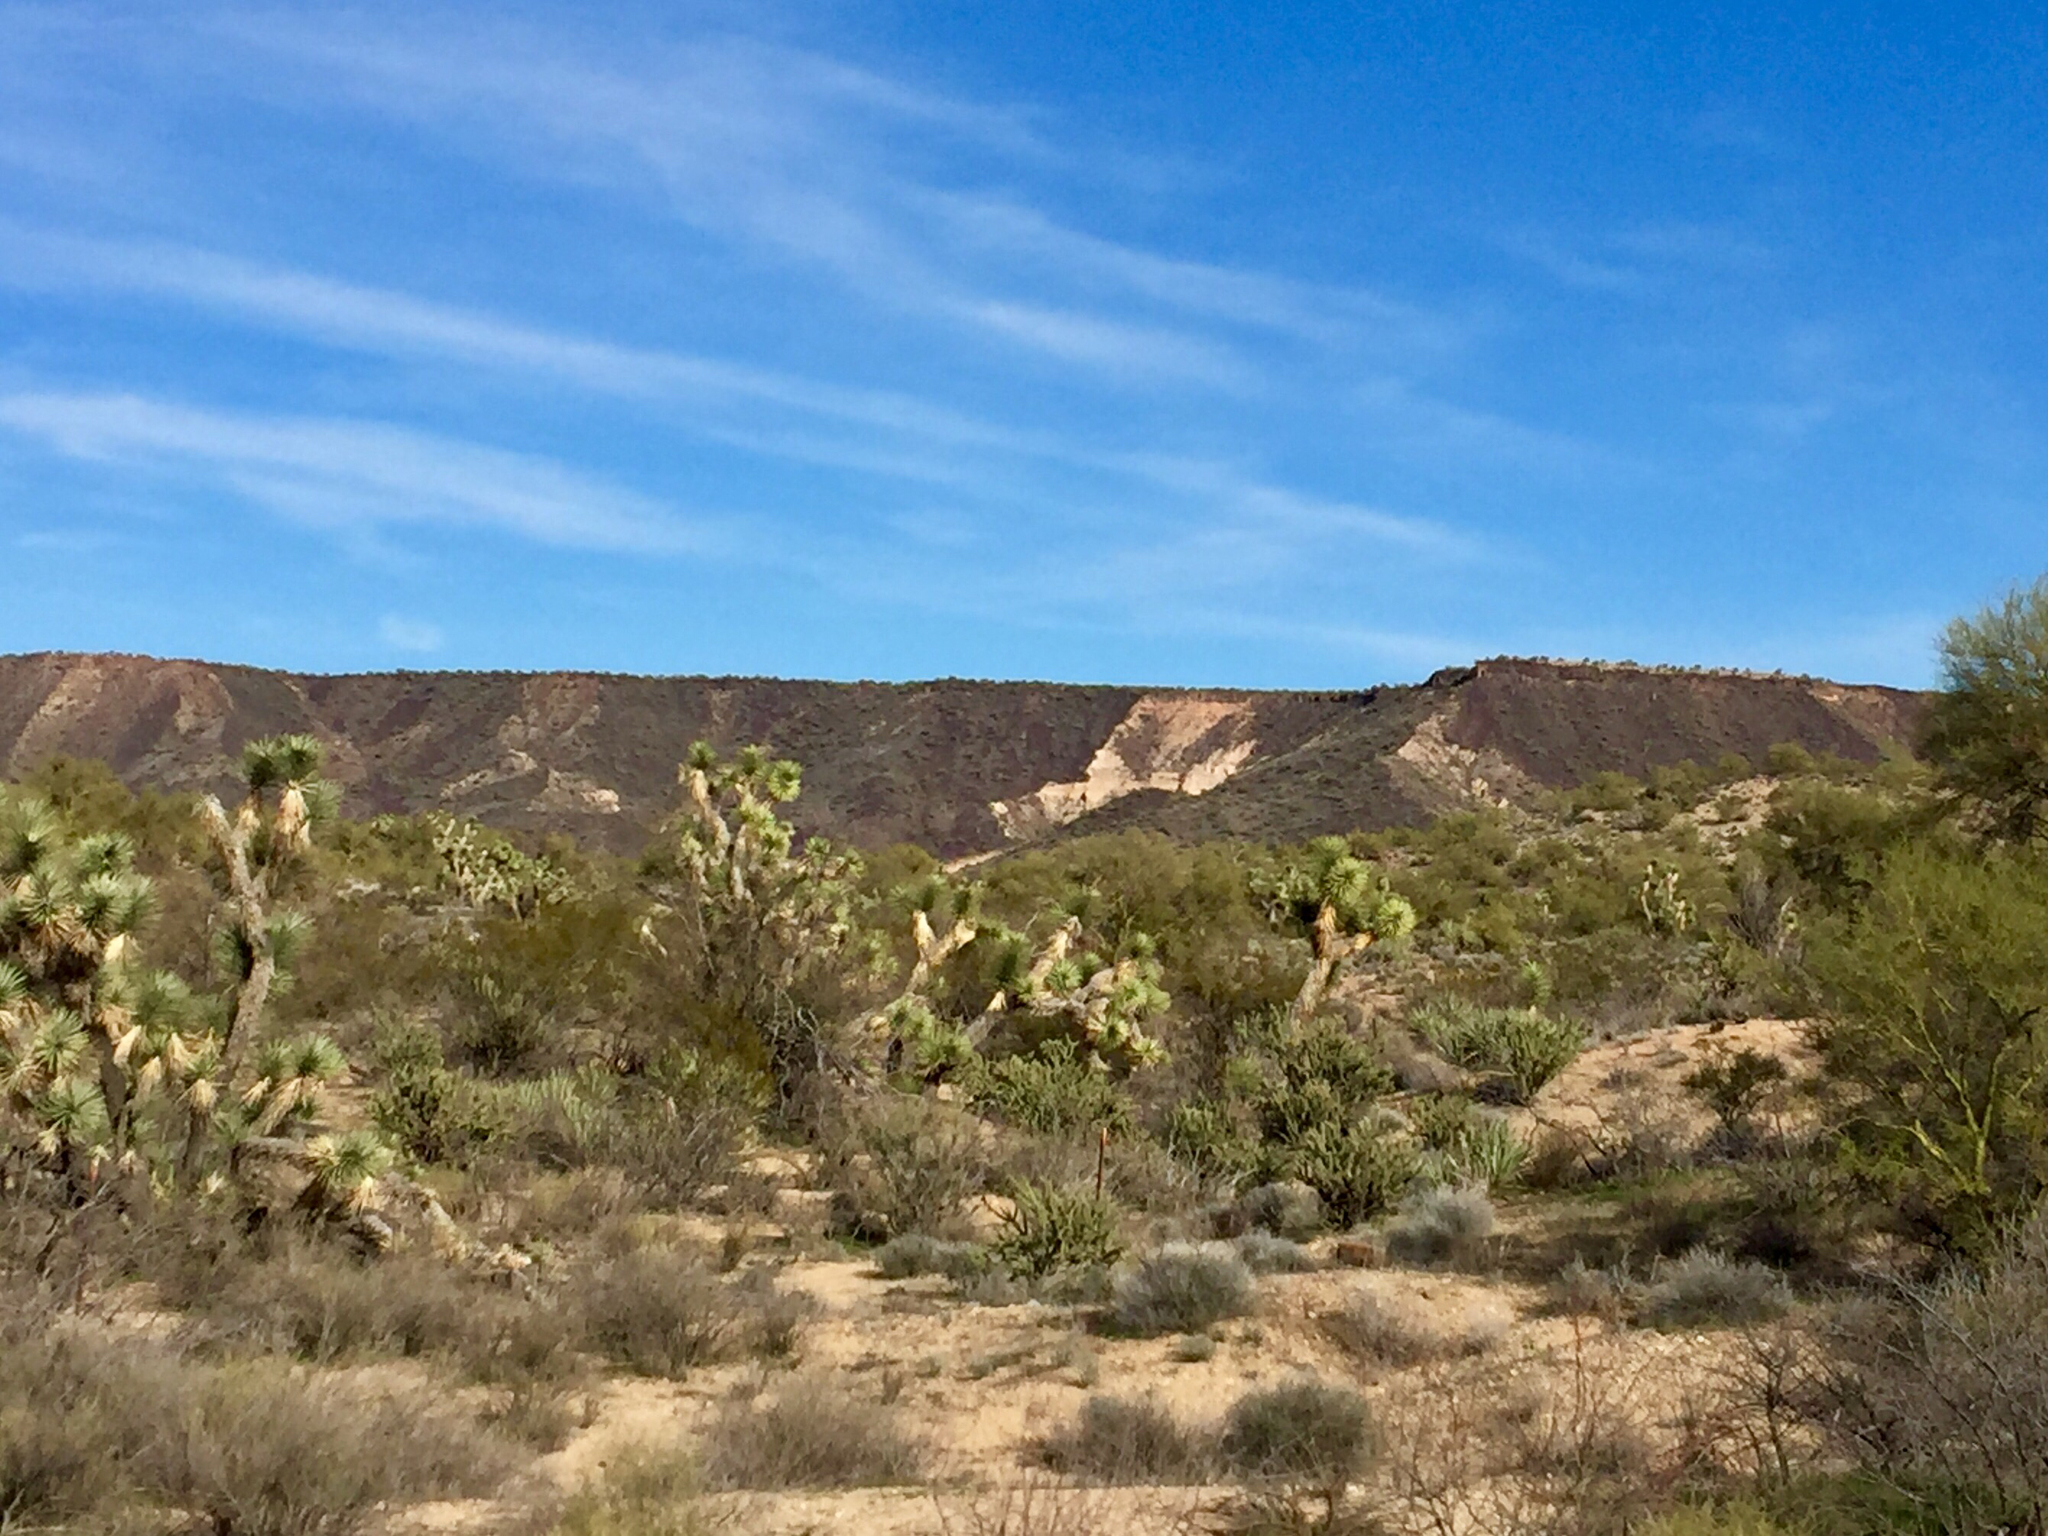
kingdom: Plantae
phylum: Tracheophyta
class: Liliopsida
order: Asparagales
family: Asparagaceae
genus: Yucca
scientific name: Yucca brevifolia
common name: Joshua tree
